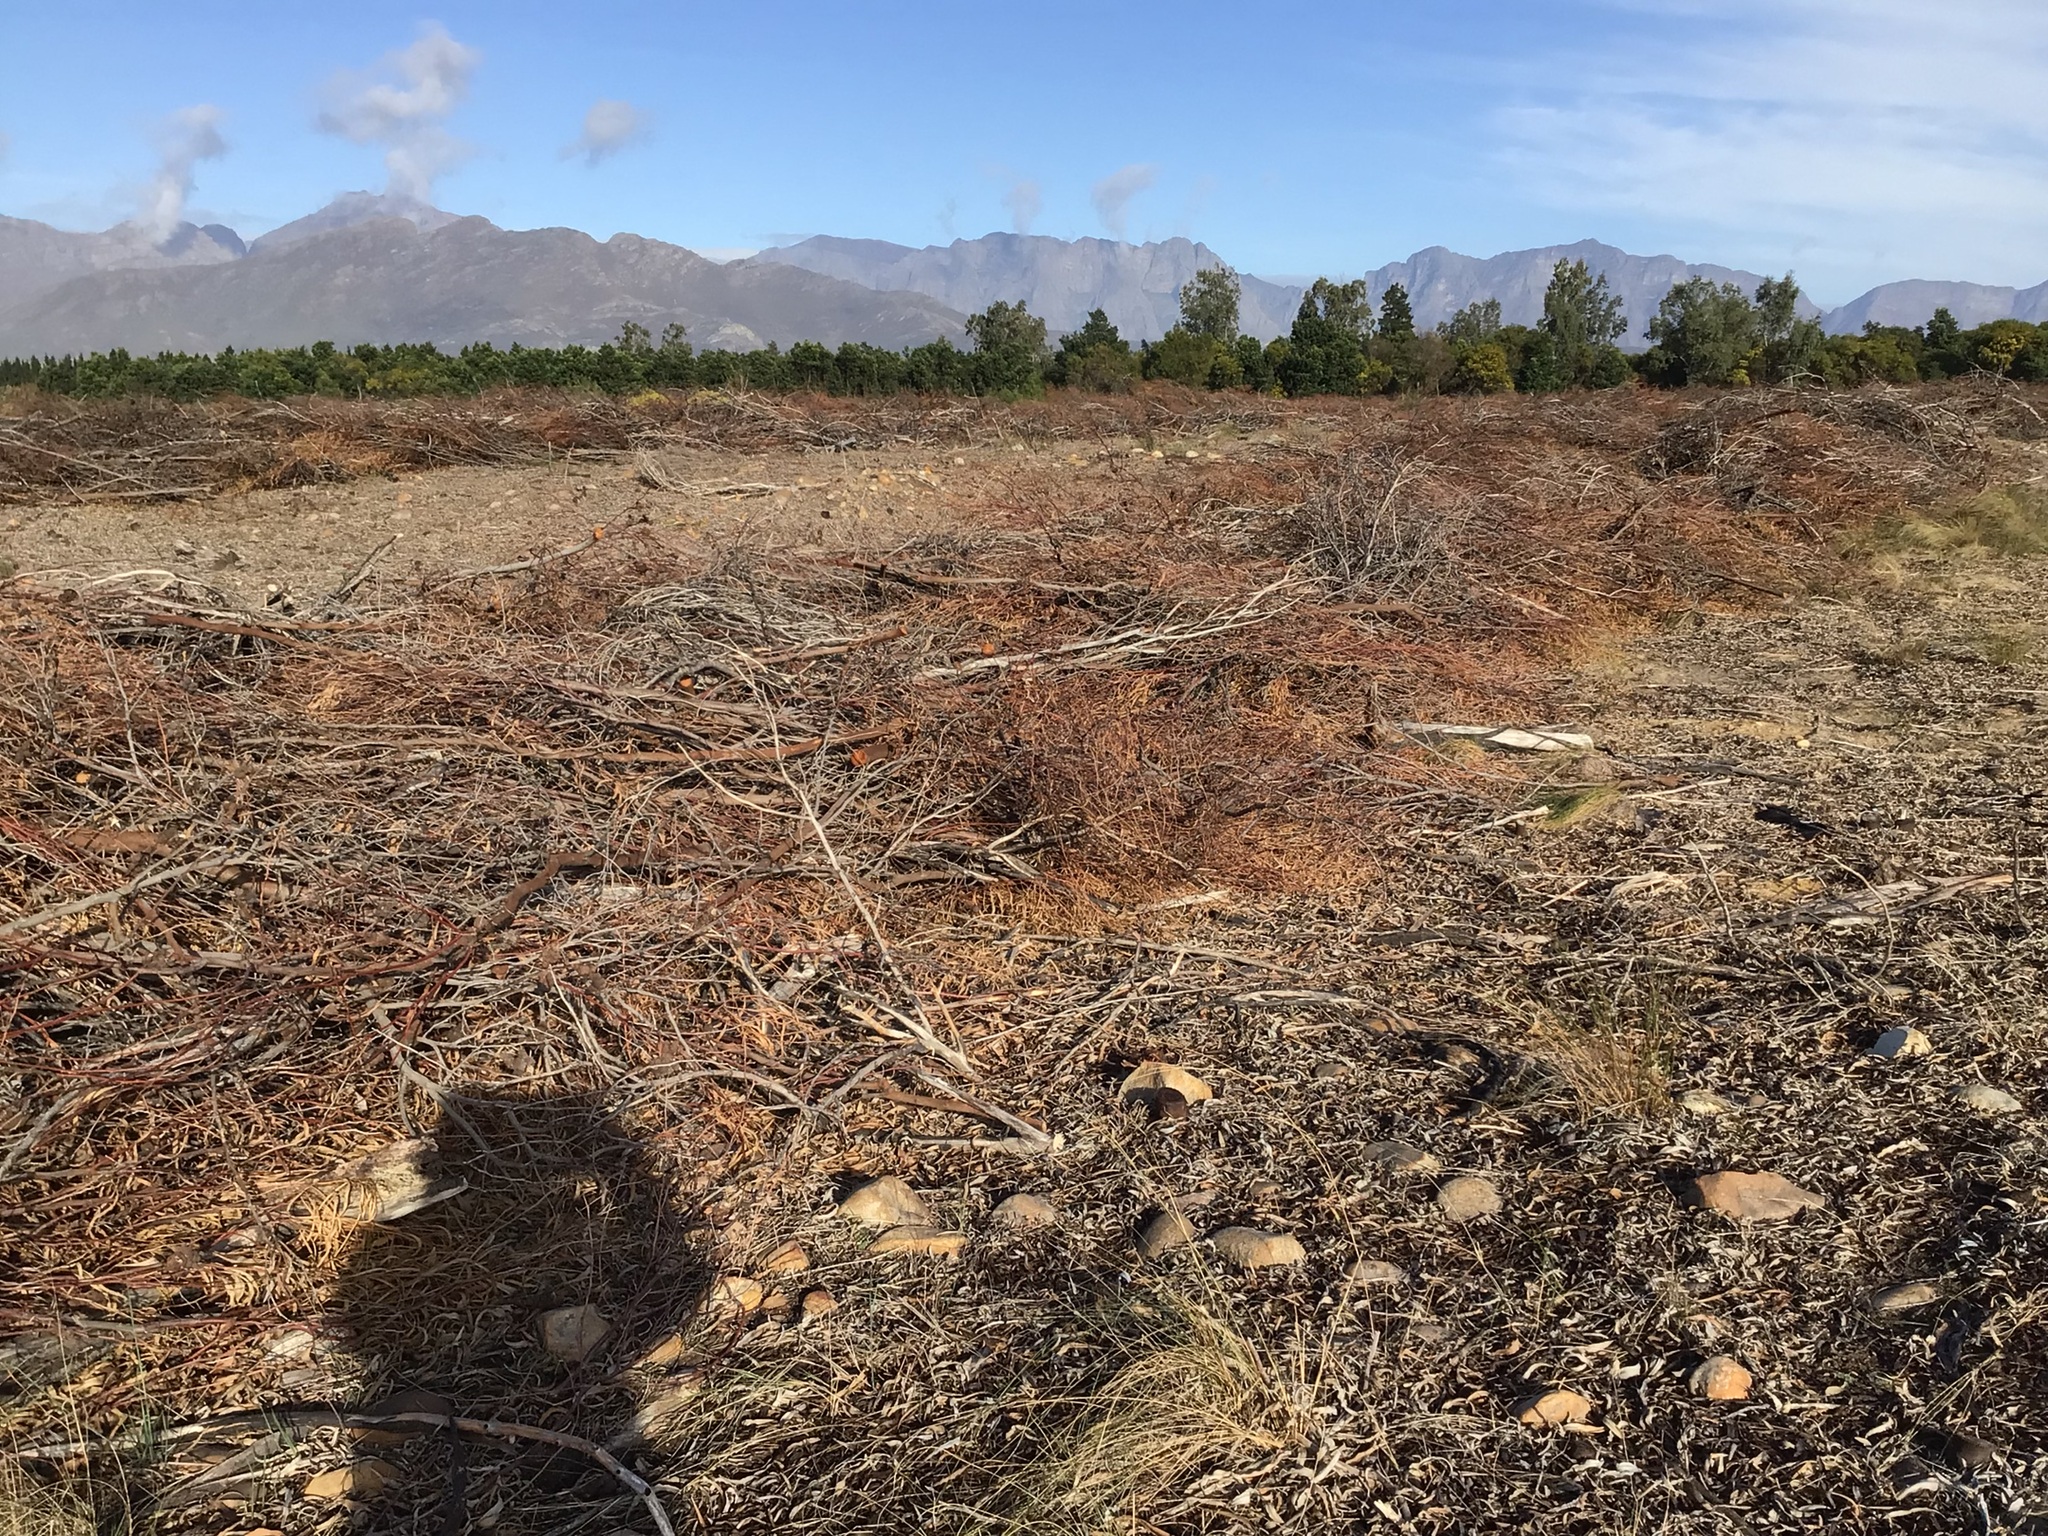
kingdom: Plantae
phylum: Tracheophyta
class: Magnoliopsida
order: Fabales
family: Fabaceae
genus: Acacia
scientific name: Acacia saligna
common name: Orange wattle
